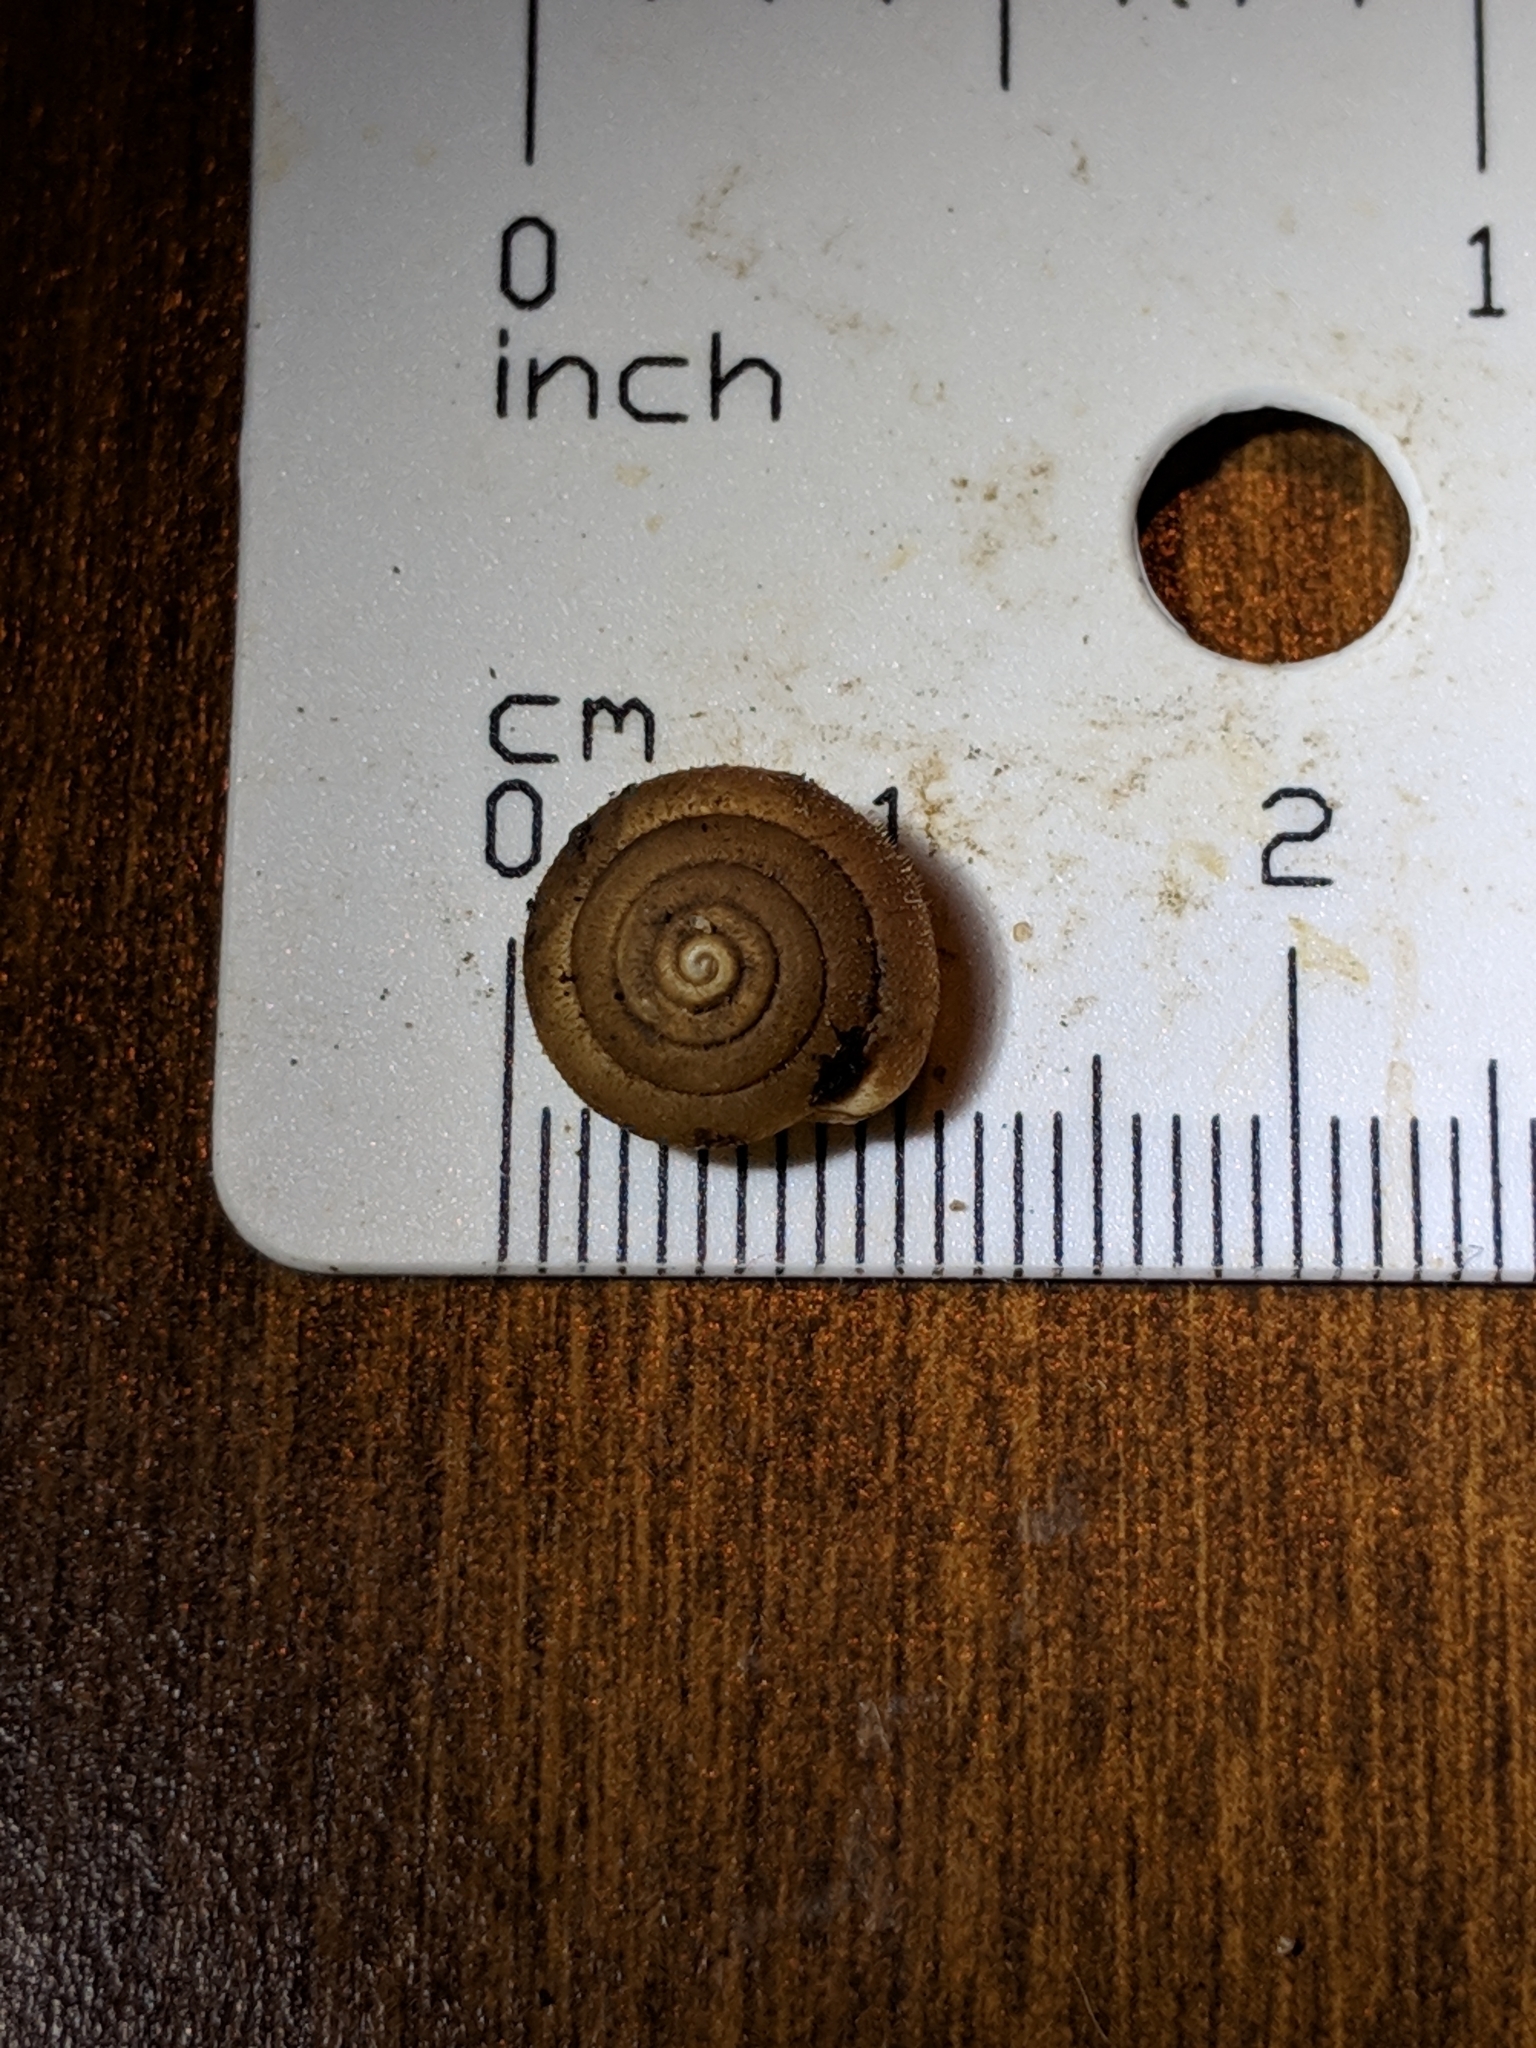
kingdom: Animalia
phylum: Mollusca
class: Gastropoda
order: Stylommatophora
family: Polygyridae
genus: Stenotrema
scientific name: Stenotrema angellum
